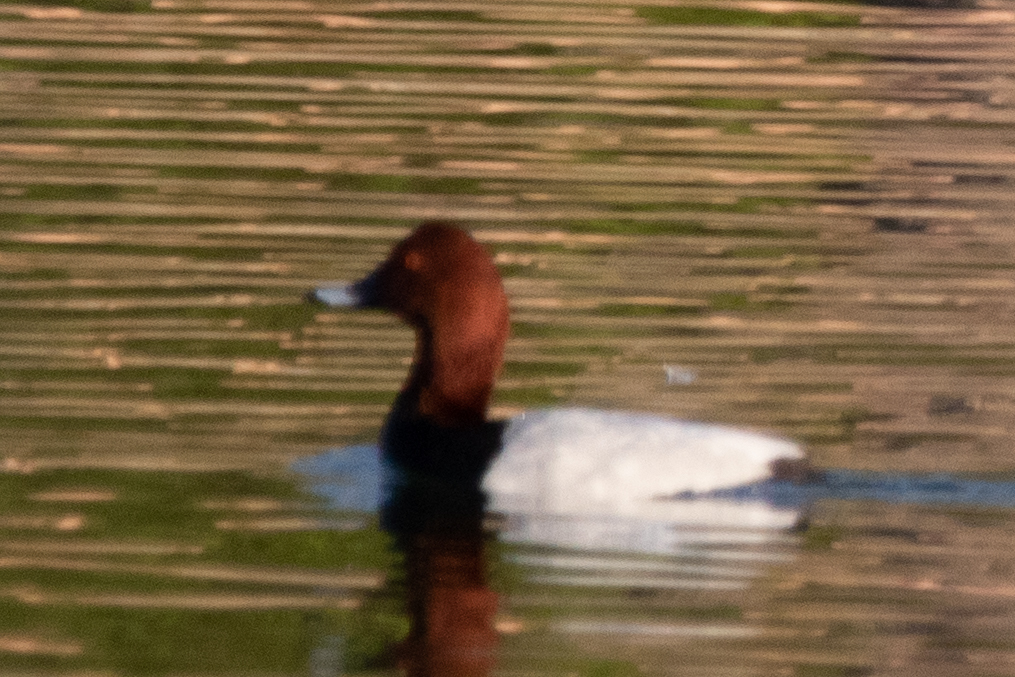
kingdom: Animalia
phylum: Chordata
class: Aves
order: Anseriformes
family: Anatidae
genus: Aythya
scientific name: Aythya ferina
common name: Common pochard
